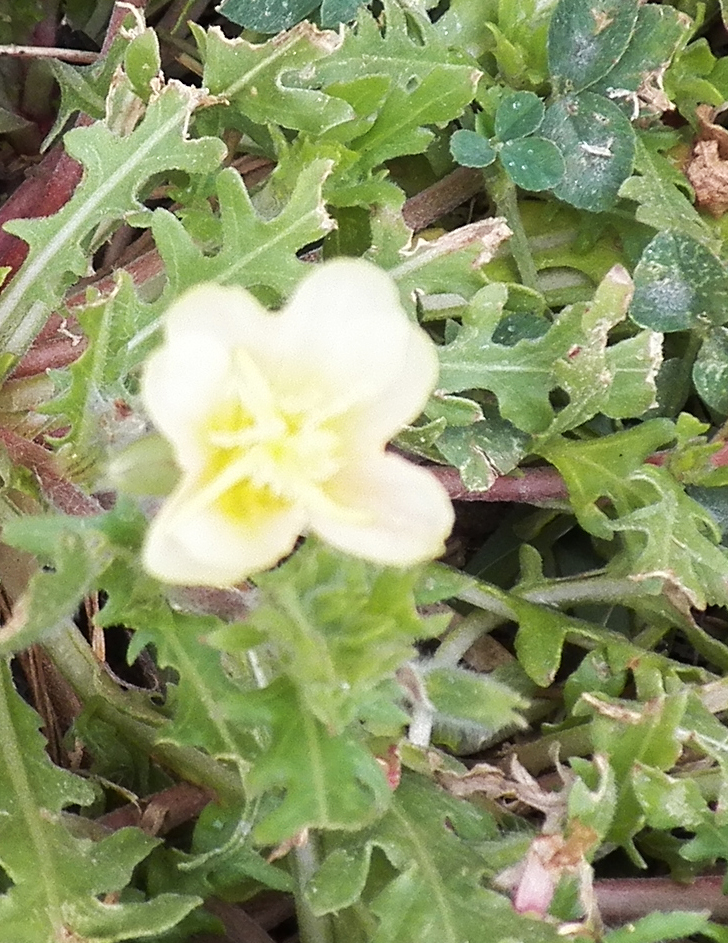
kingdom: Plantae
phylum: Tracheophyta
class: Magnoliopsida
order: Myrtales
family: Onagraceae
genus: Oenothera
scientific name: Oenothera laciniata
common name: Cut-leaved evening-primrose
